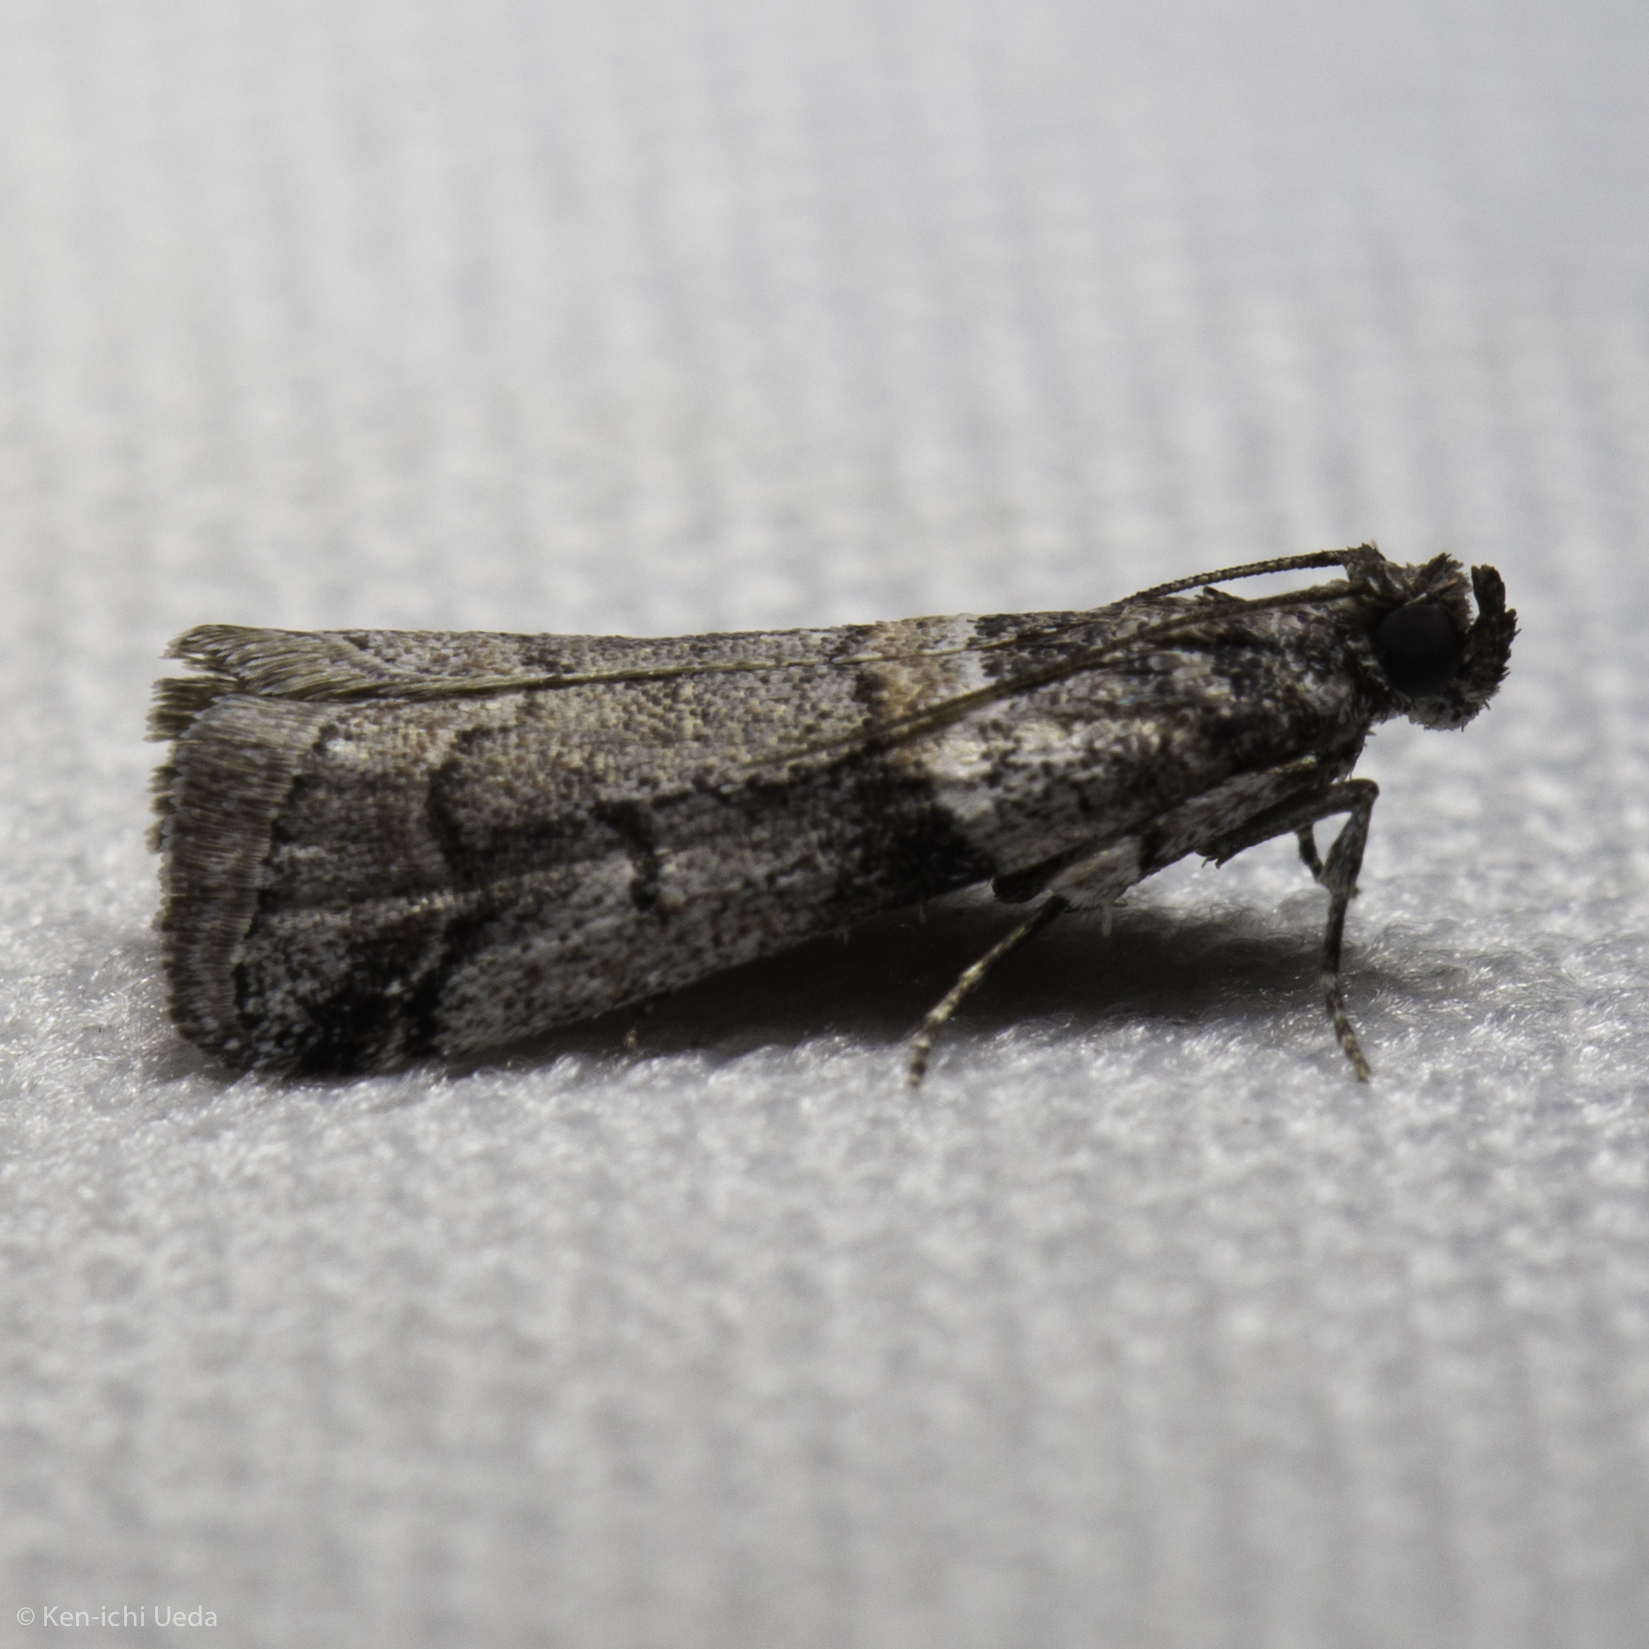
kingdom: Animalia
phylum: Arthropoda
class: Insecta
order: Lepidoptera
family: Pyralidae
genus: Acrobasis
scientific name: Acrobasis tricolorella
